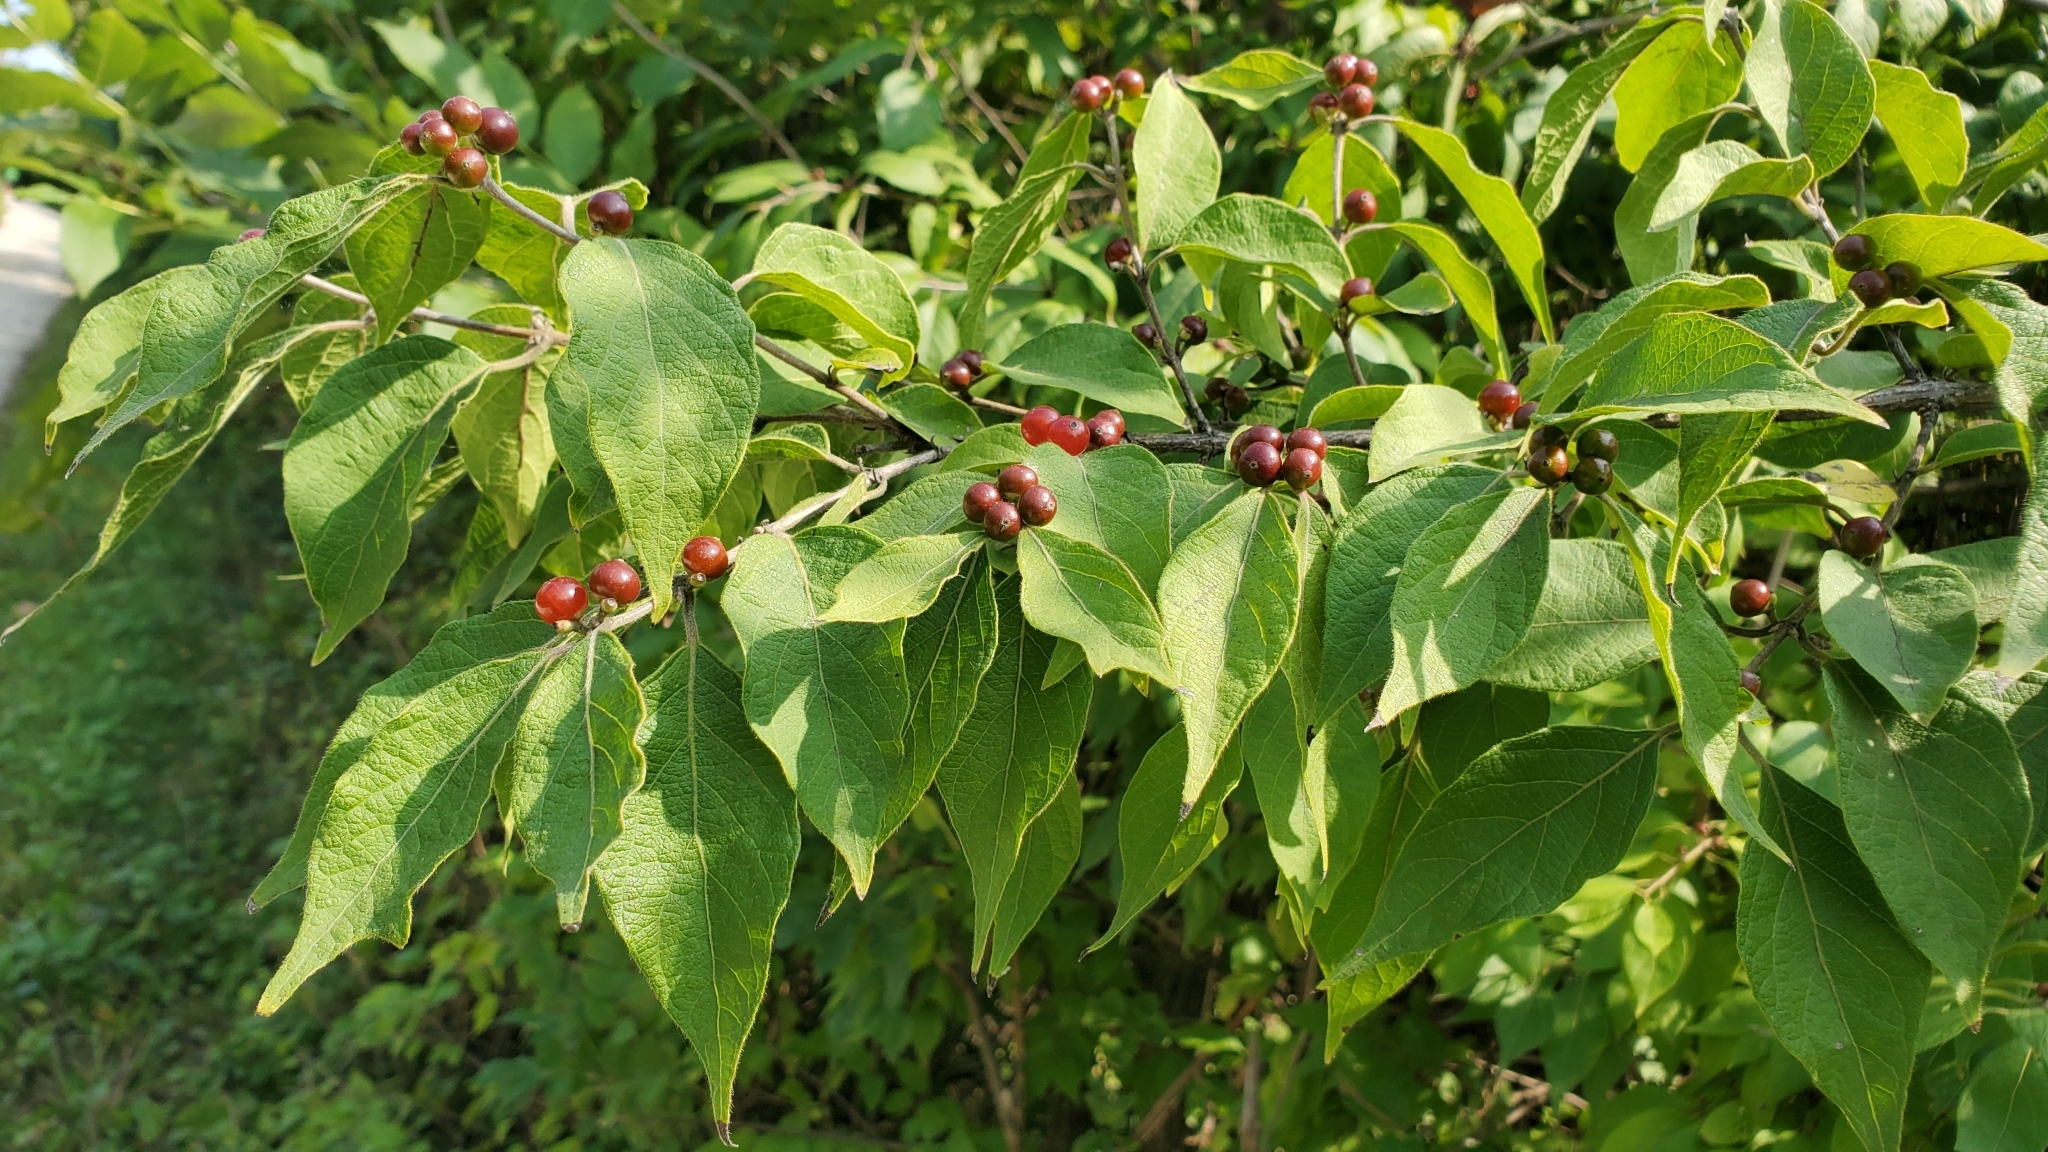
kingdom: Plantae
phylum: Tracheophyta
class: Magnoliopsida
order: Dipsacales
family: Caprifoliaceae
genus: Lonicera
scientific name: Lonicera maackii
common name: Amur honeysuckle
